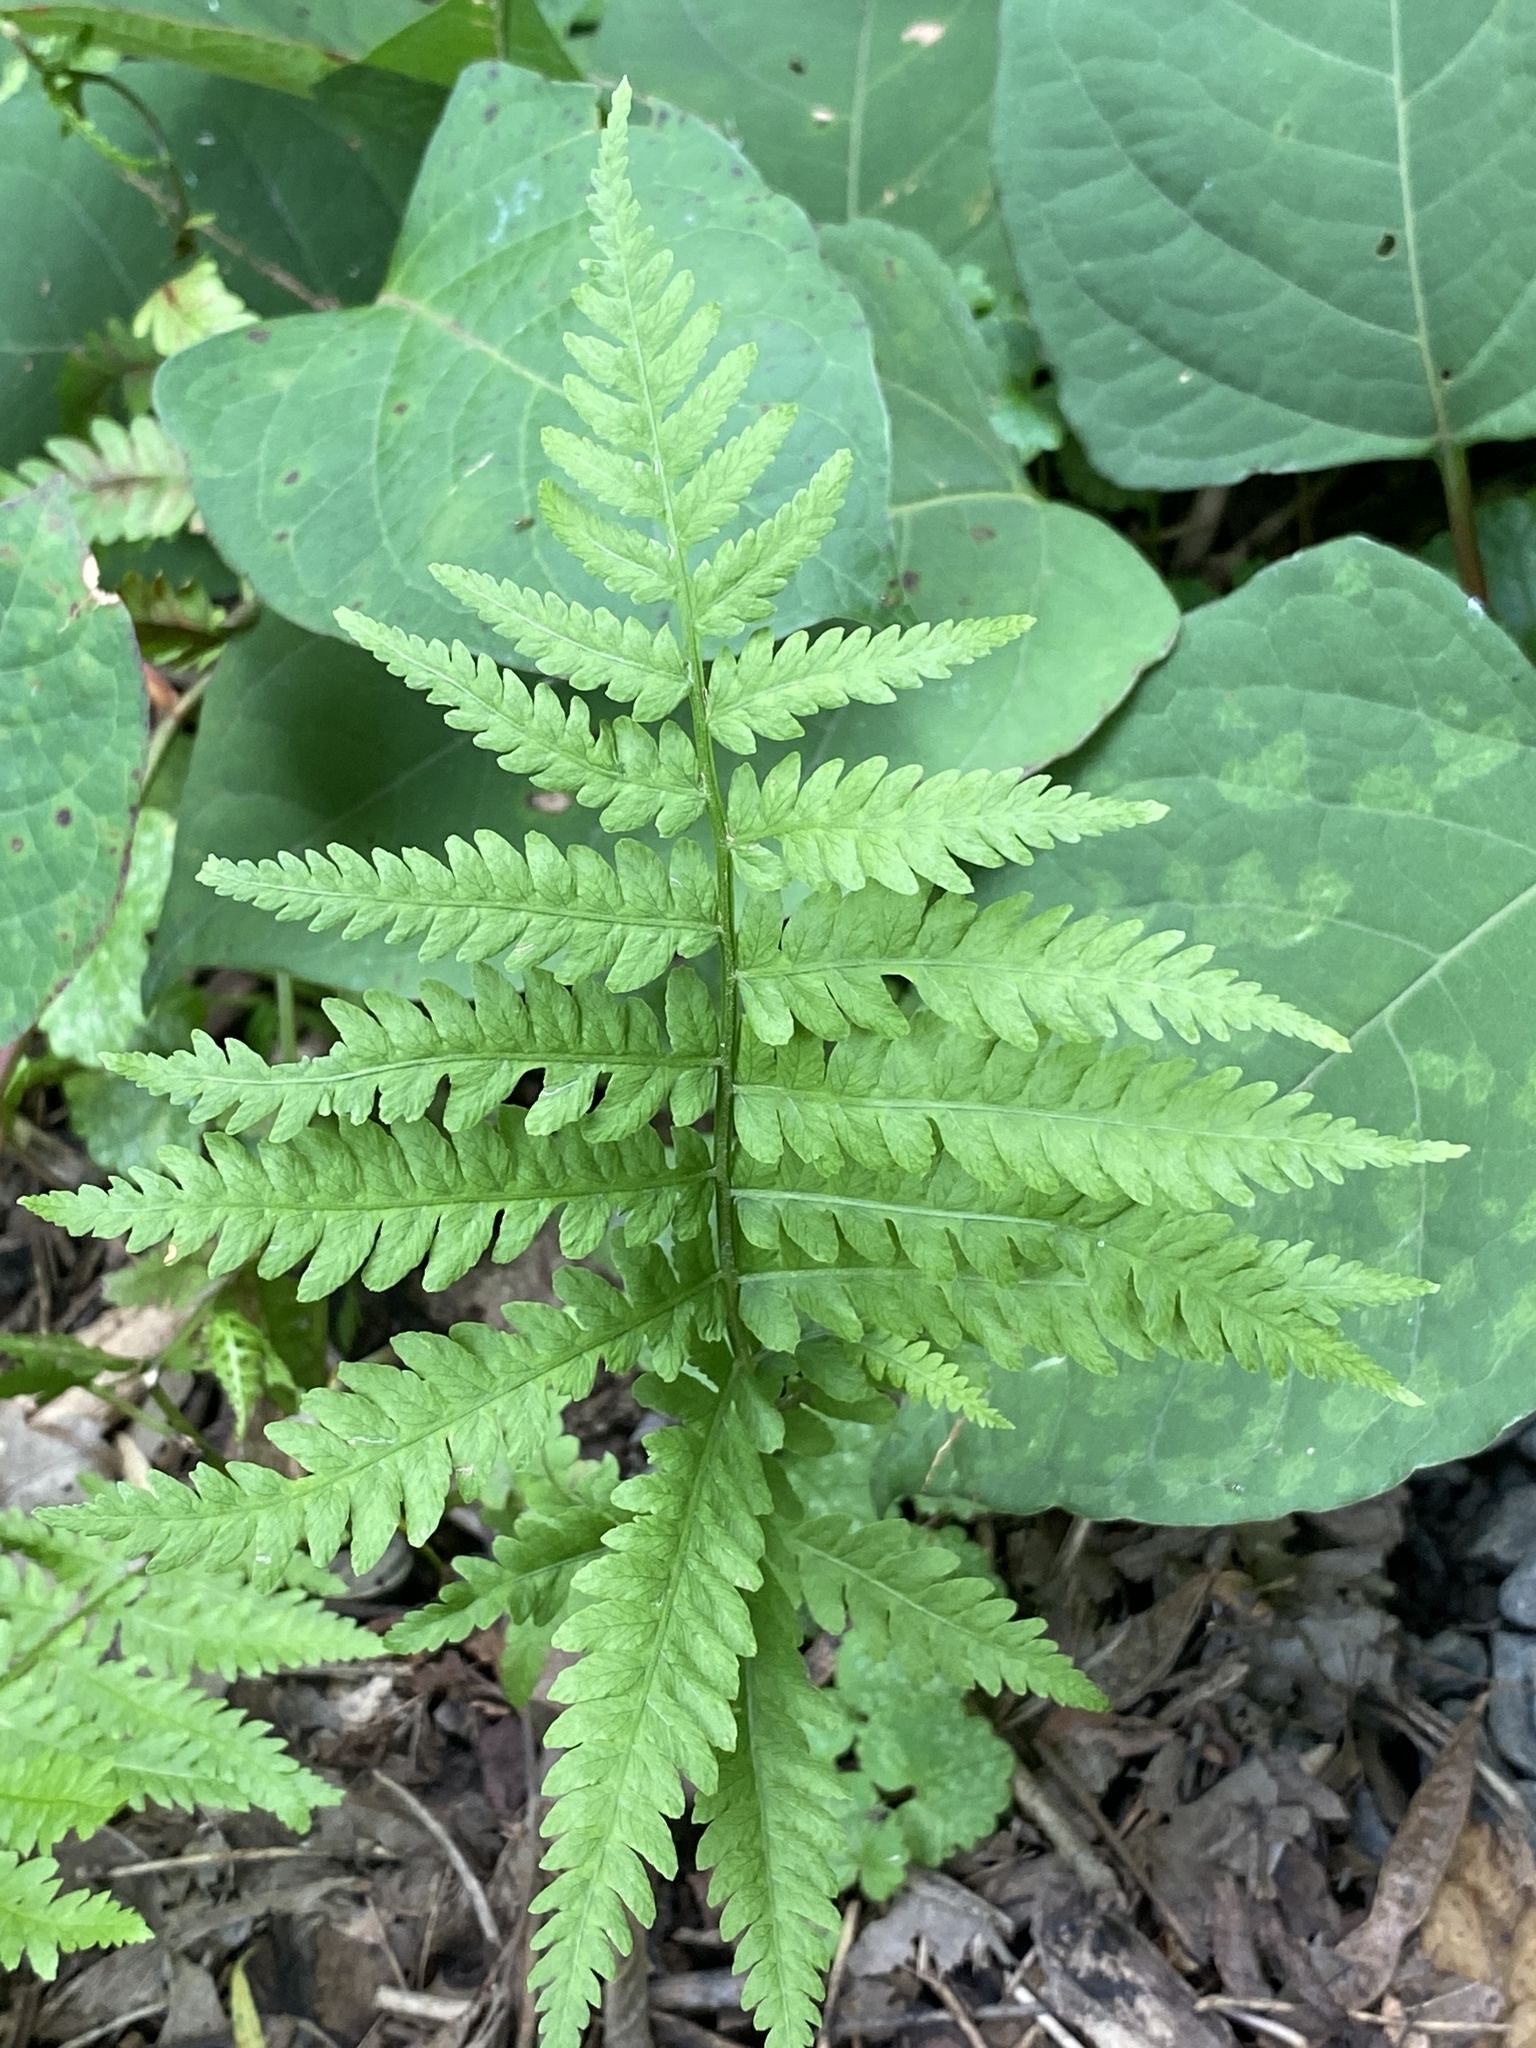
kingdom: Plantae
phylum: Tracheophyta
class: Polypodiopsida
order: Polypodiales
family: Thelypteridaceae
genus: Amauropelta
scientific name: Amauropelta noveboracensis
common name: New york fern
